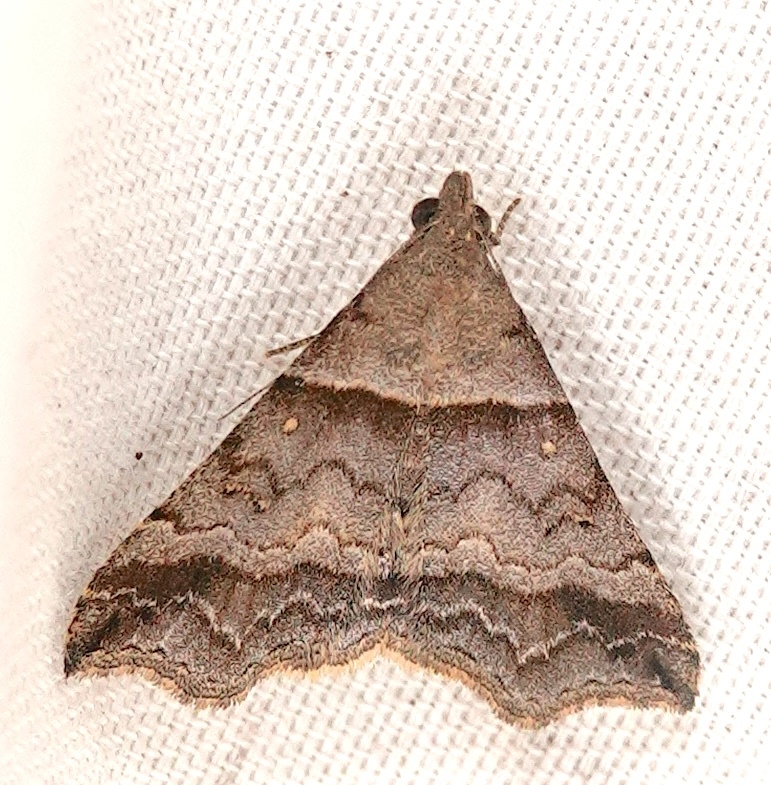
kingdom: Animalia
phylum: Arthropoda
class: Insecta
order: Lepidoptera
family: Erebidae
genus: Heterogramma
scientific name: Heterogramma circumflexalis
